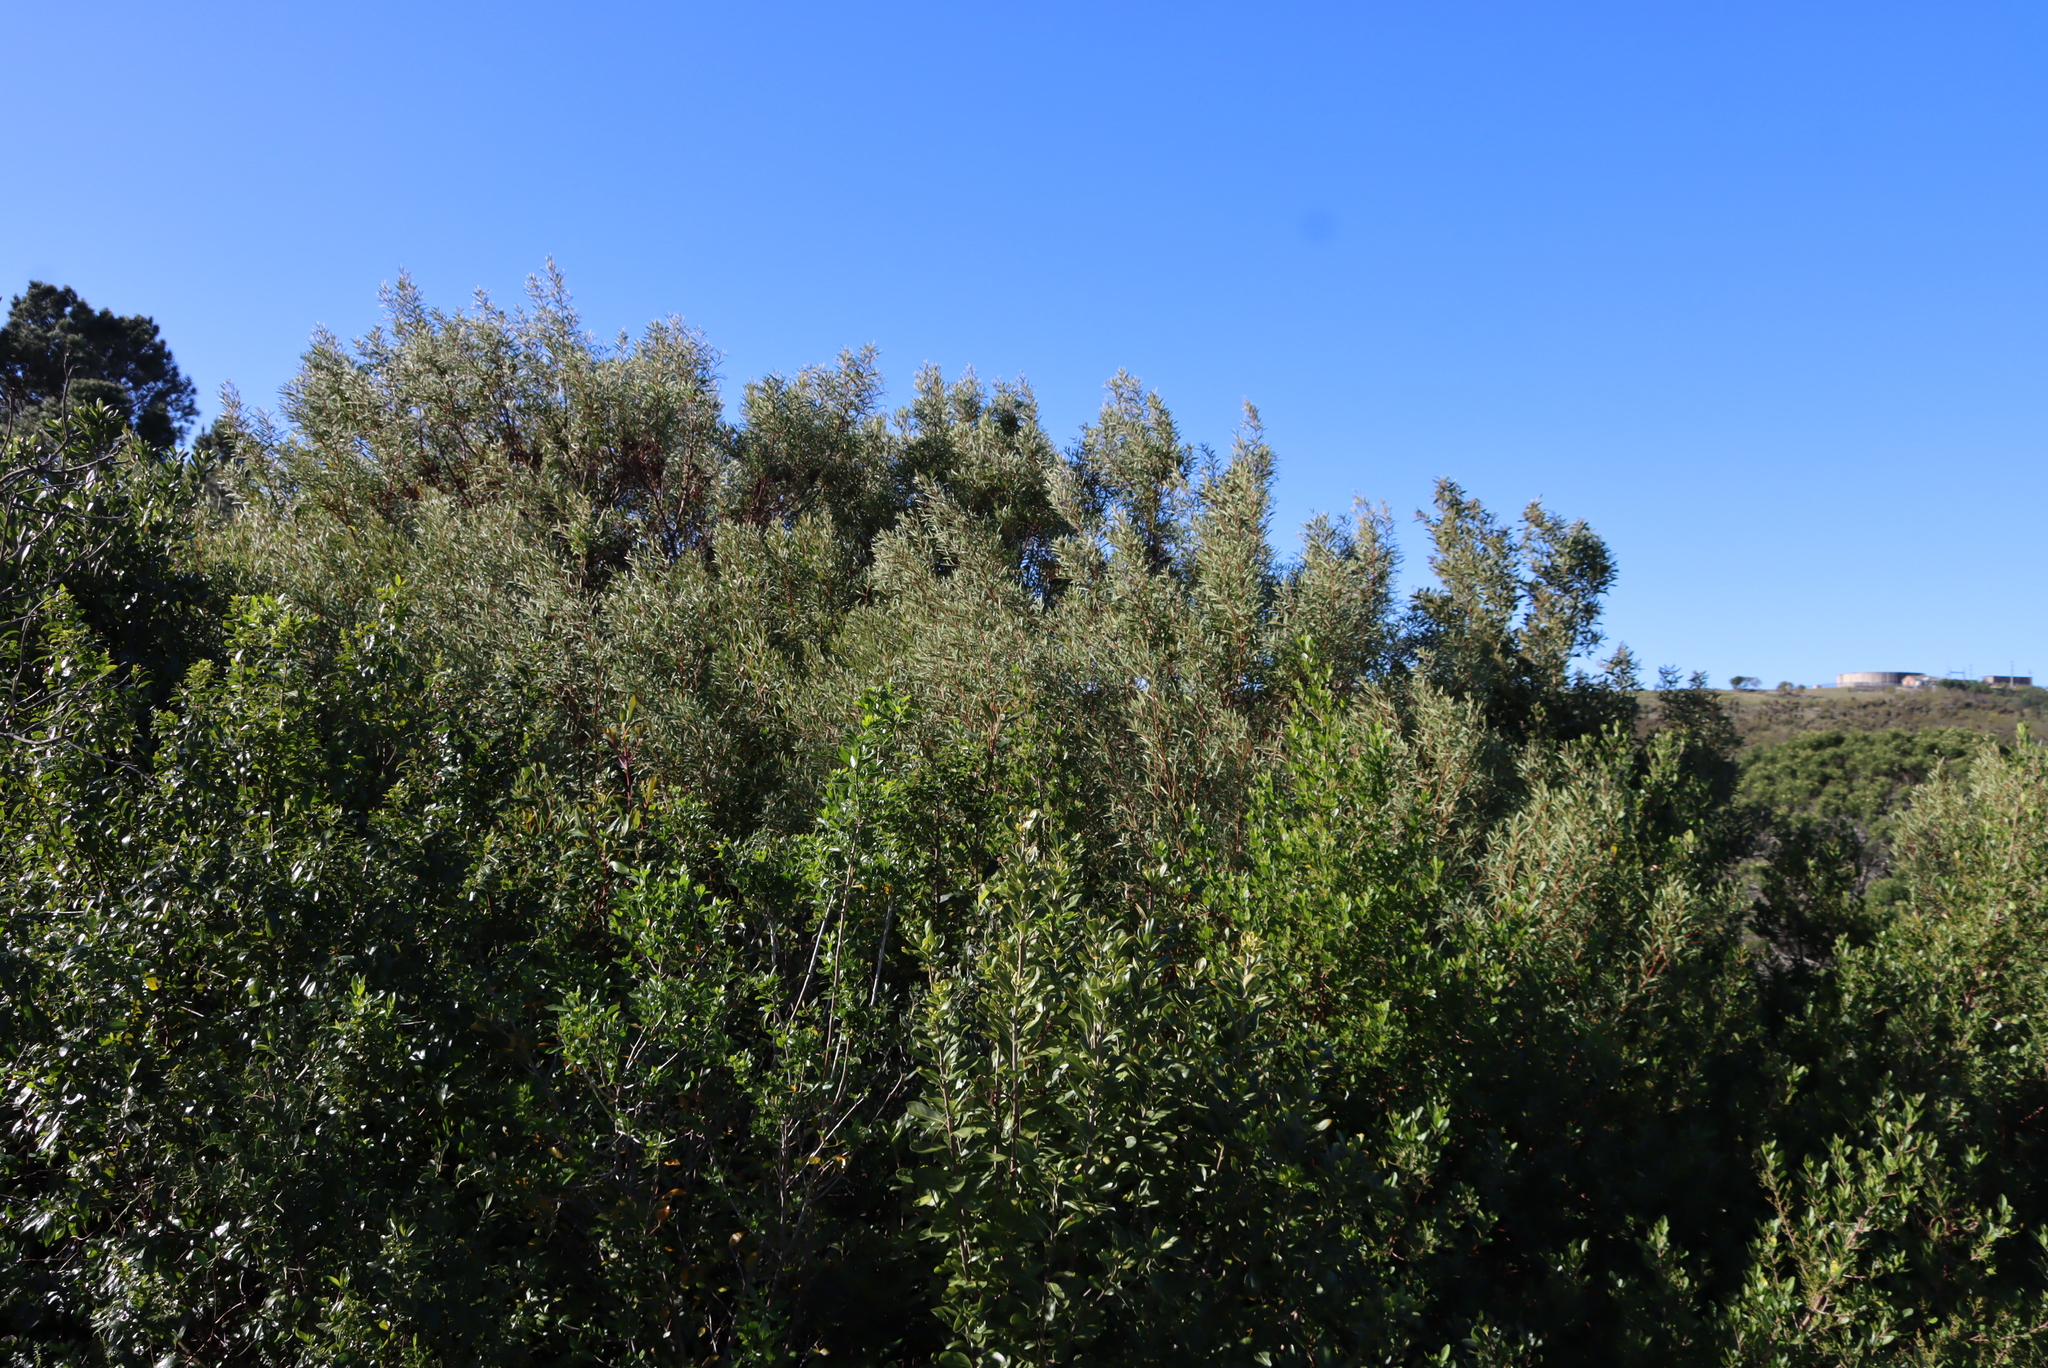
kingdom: Plantae
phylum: Tracheophyta
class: Magnoliopsida
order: Fabales
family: Fabaceae
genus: Acacia
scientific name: Acacia cyclops
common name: Coastal wattle
